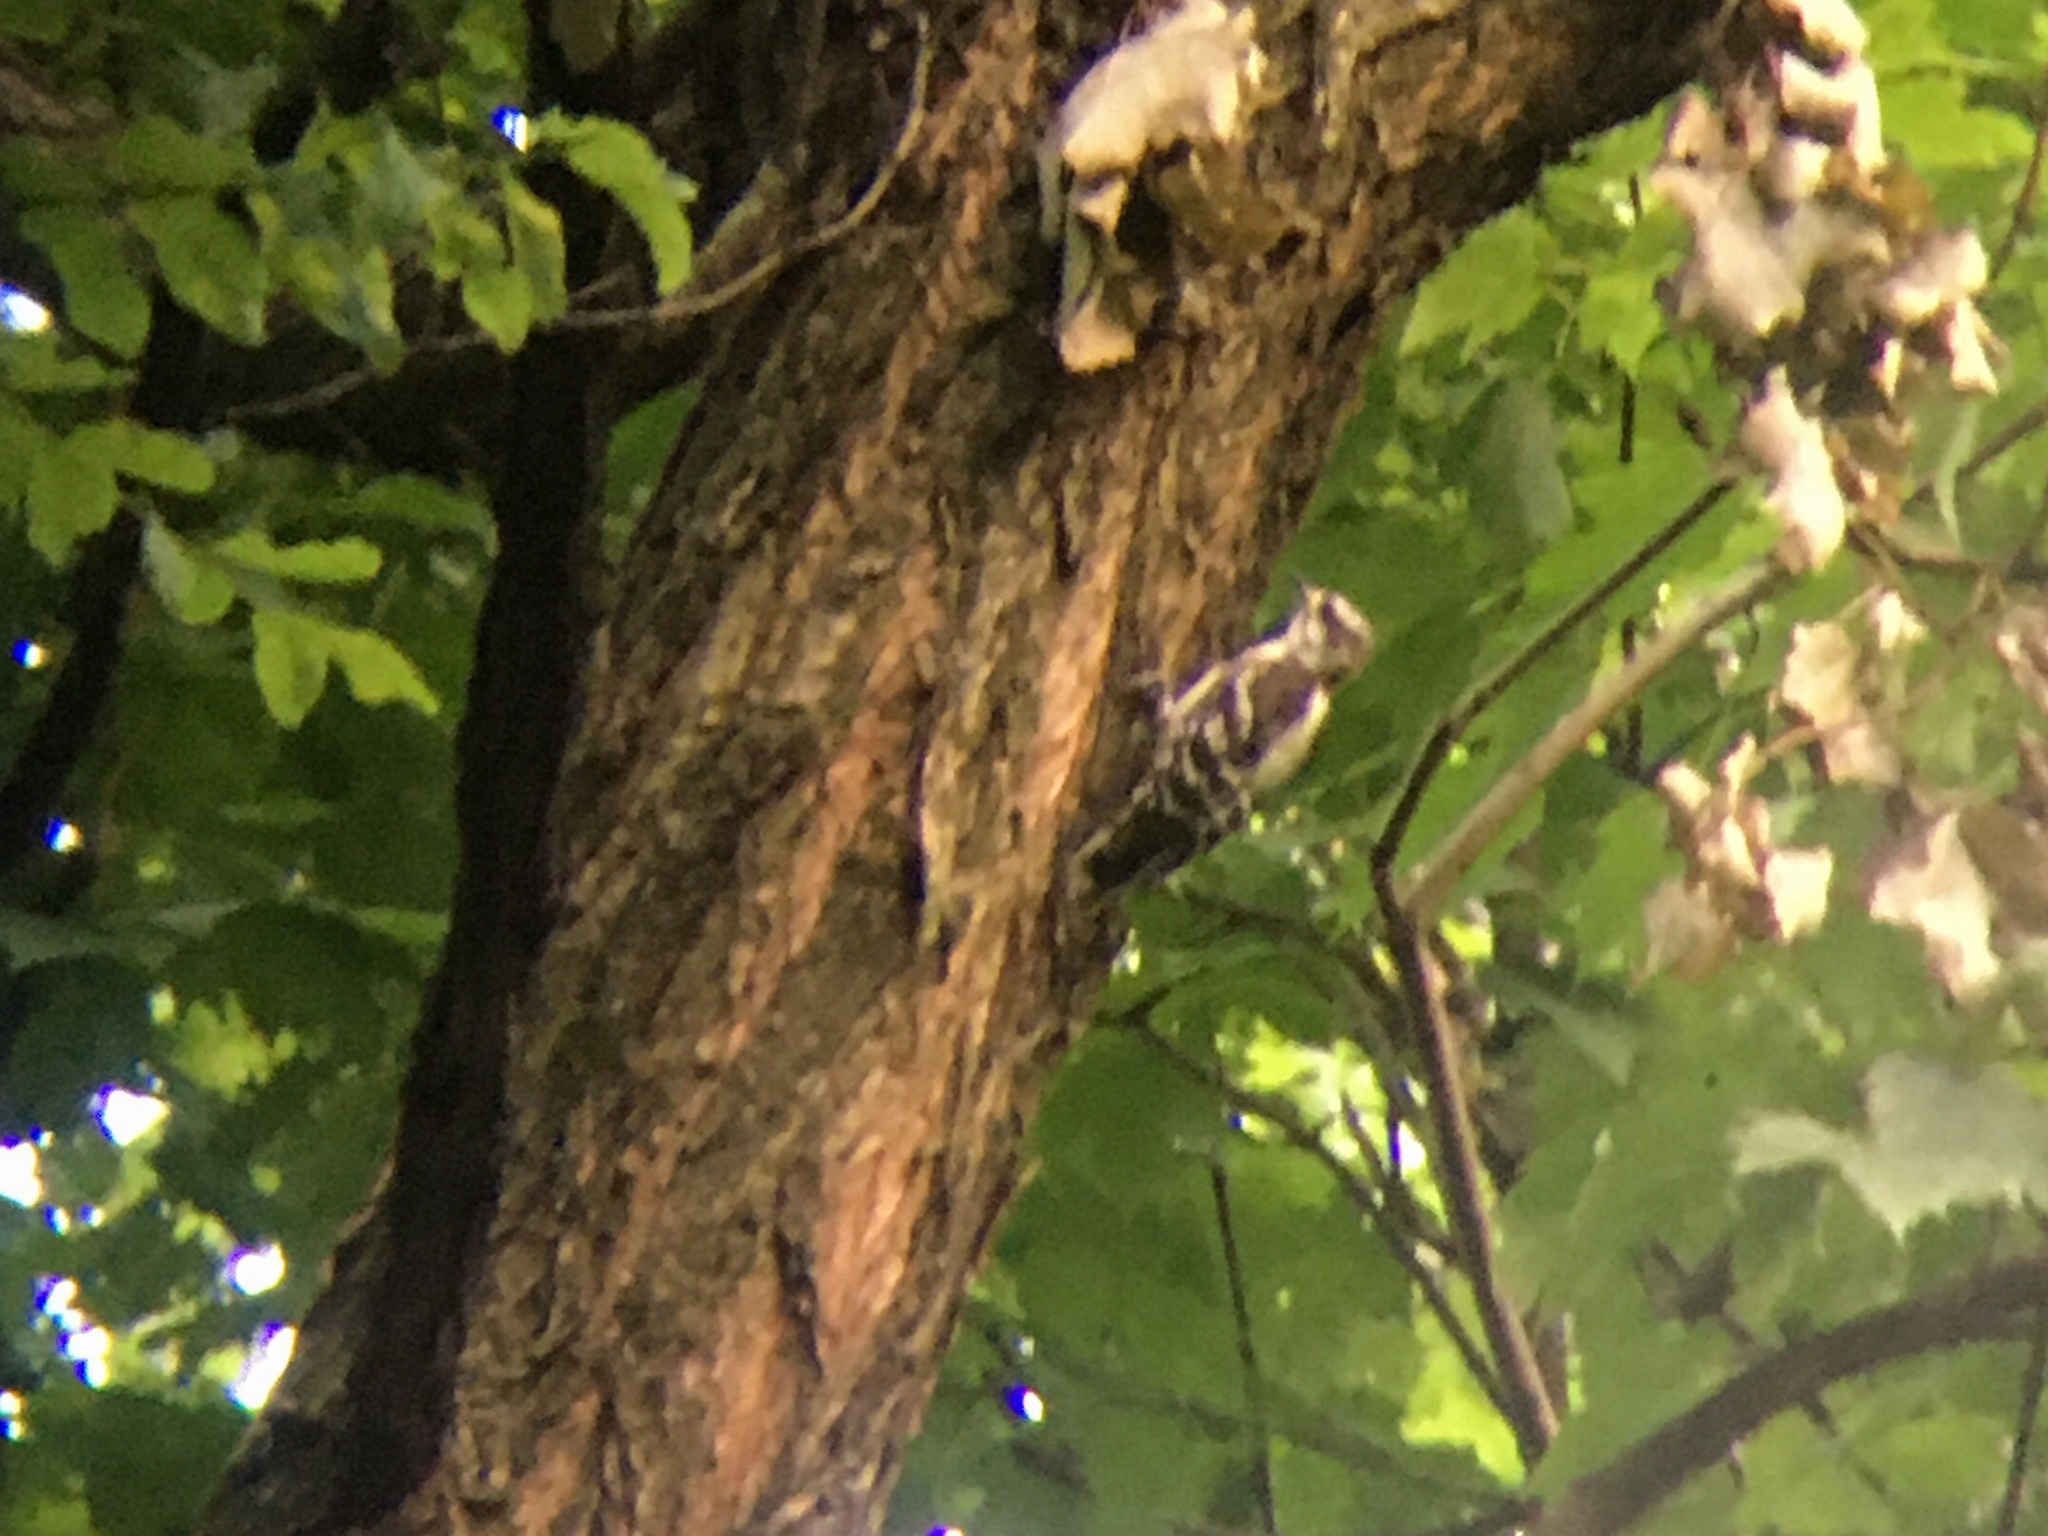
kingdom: Animalia
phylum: Chordata
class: Aves
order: Piciformes
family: Picidae
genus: Dryobates
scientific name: Dryobates pubescens
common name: Downy woodpecker
